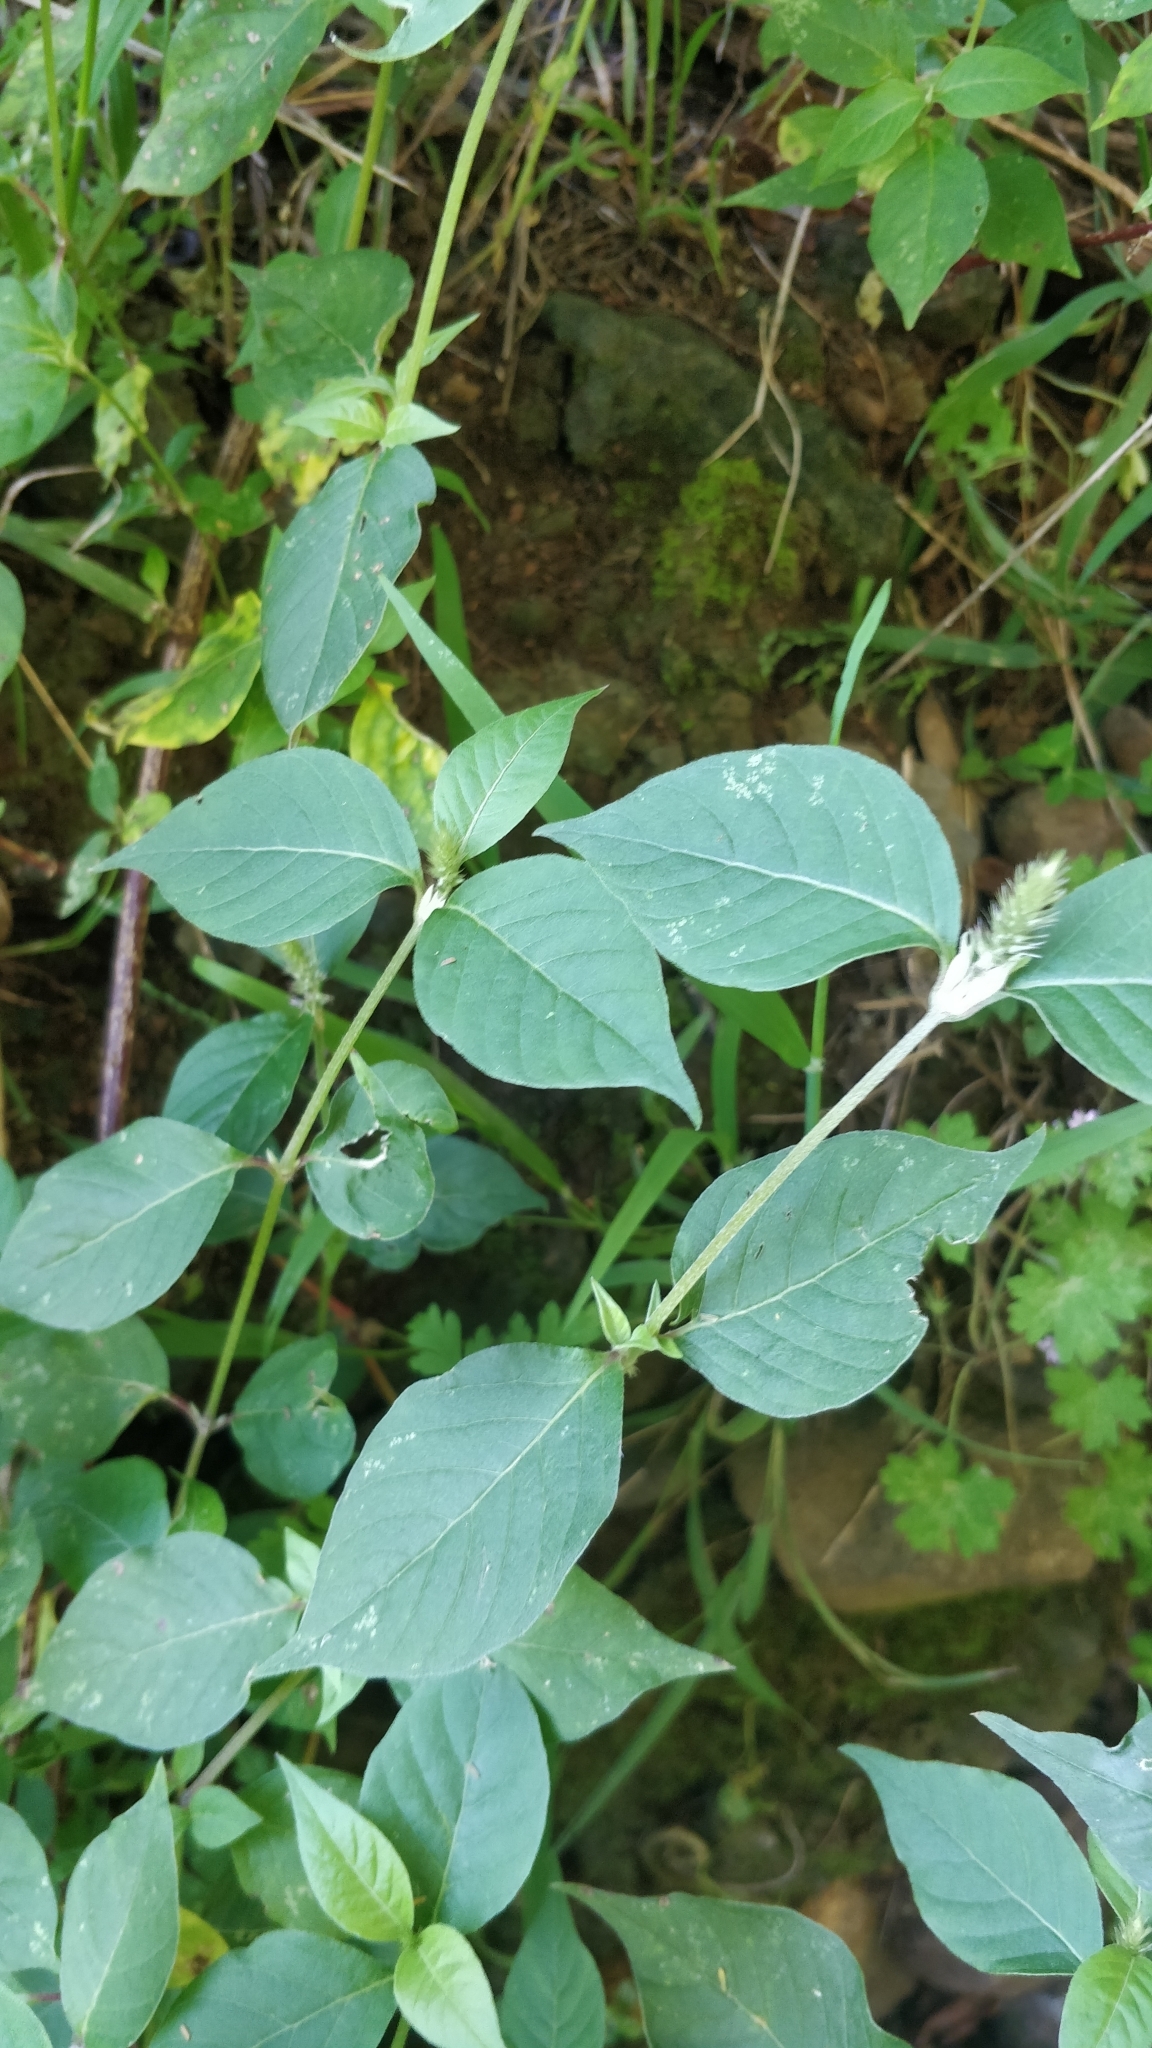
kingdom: Plantae
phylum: Tracheophyta
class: Magnoliopsida
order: Caryophyllales
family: Amaranthaceae
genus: Achyranthes
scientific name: Achyranthes aspera
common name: Devil's horsewhip
